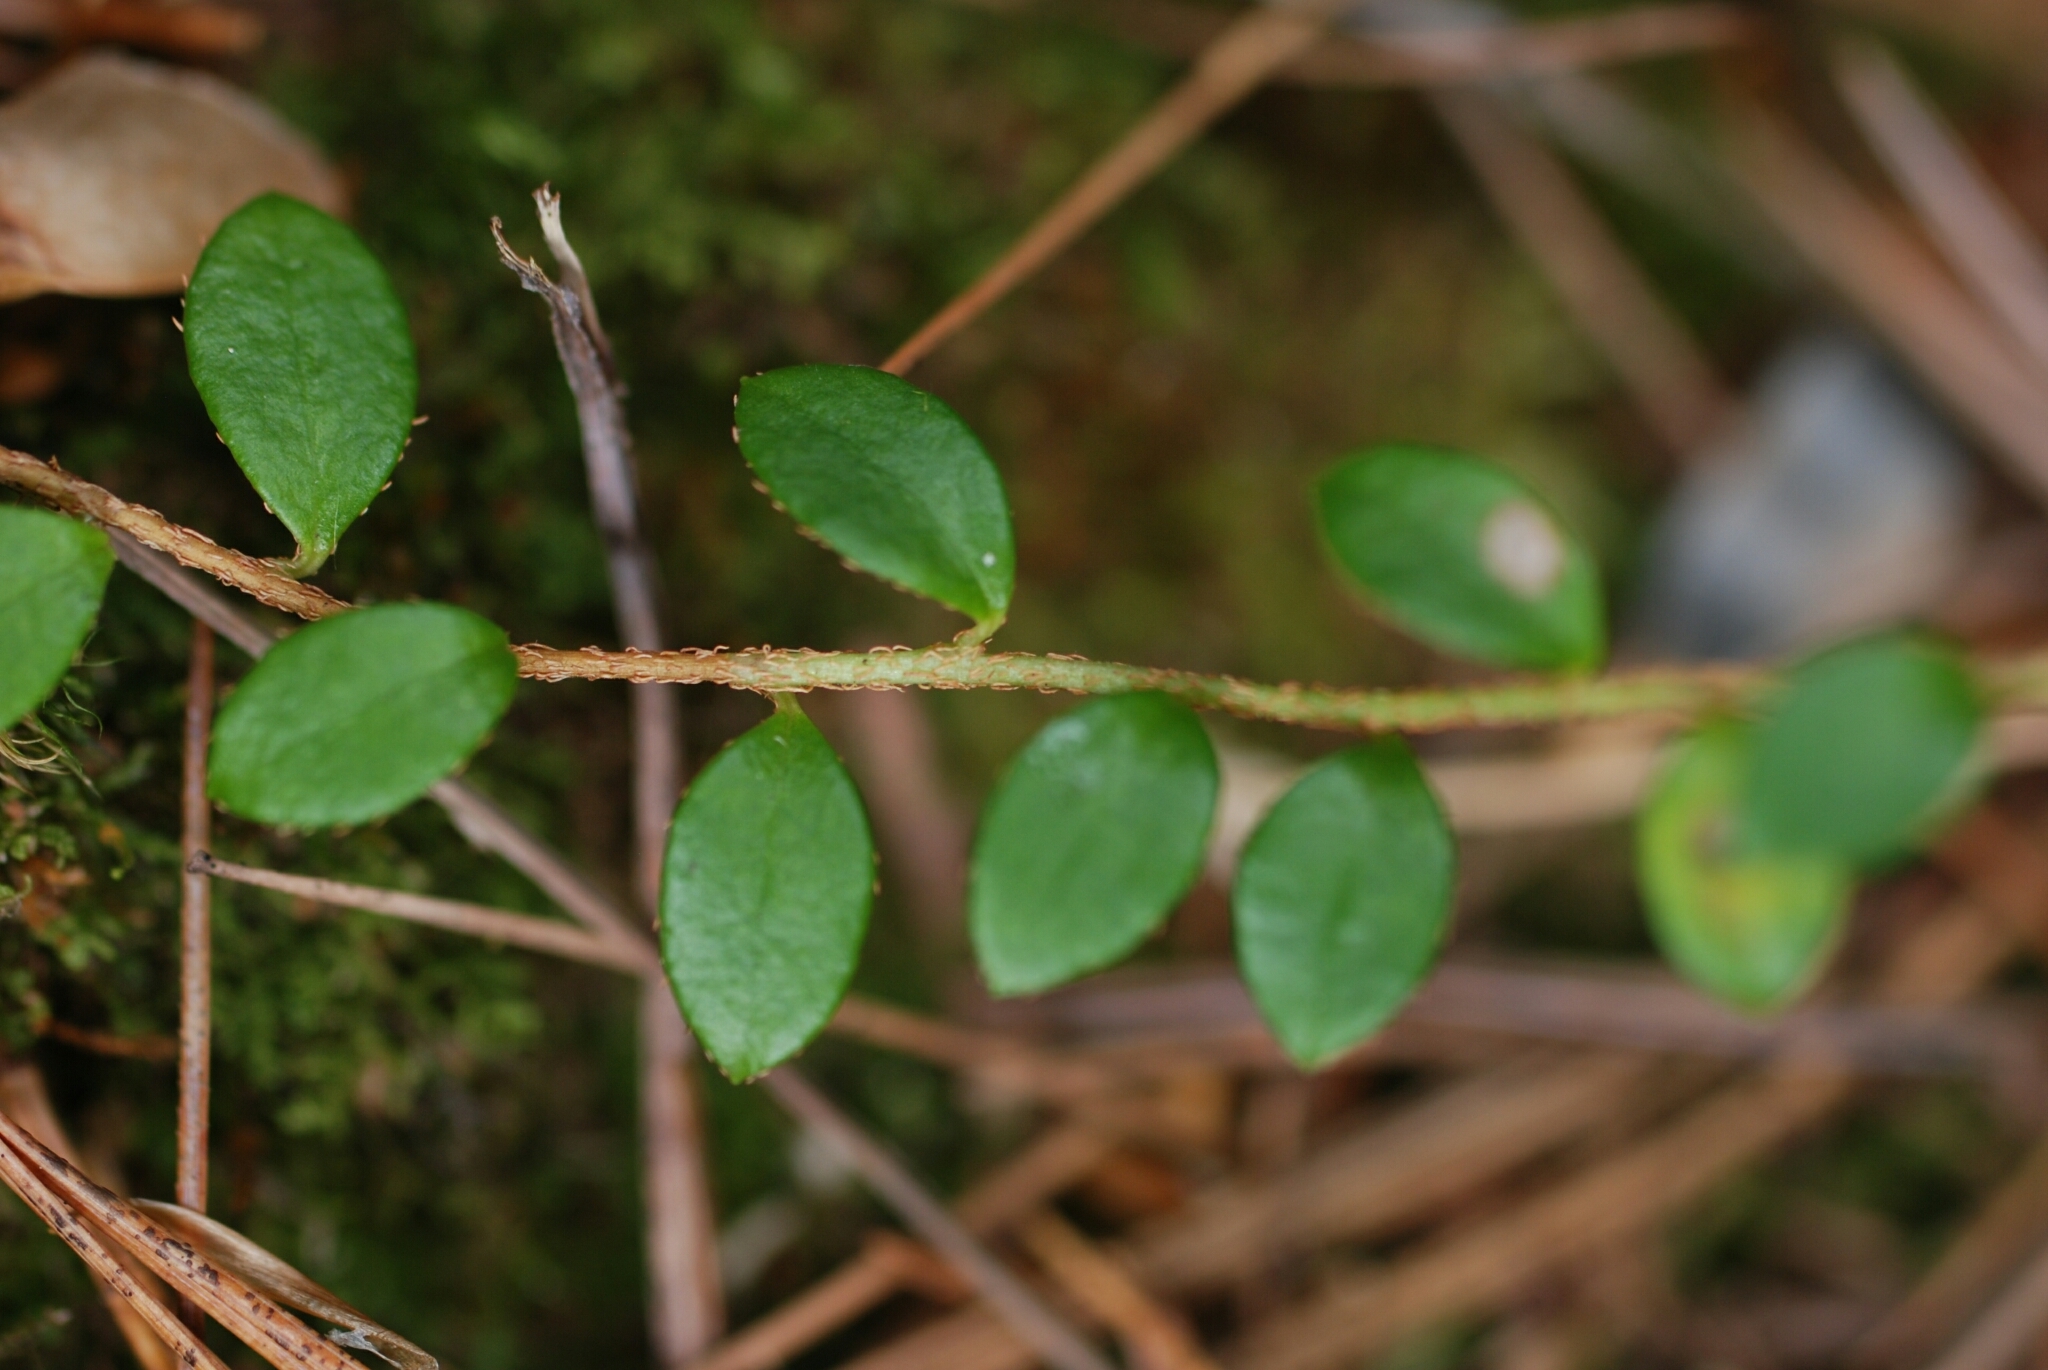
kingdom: Plantae
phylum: Tracheophyta
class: Magnoliopsida
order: Ericales
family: Ericaceae
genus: Gaultheria
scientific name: Gaultheria hispidula
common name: Cancer wintergreen
